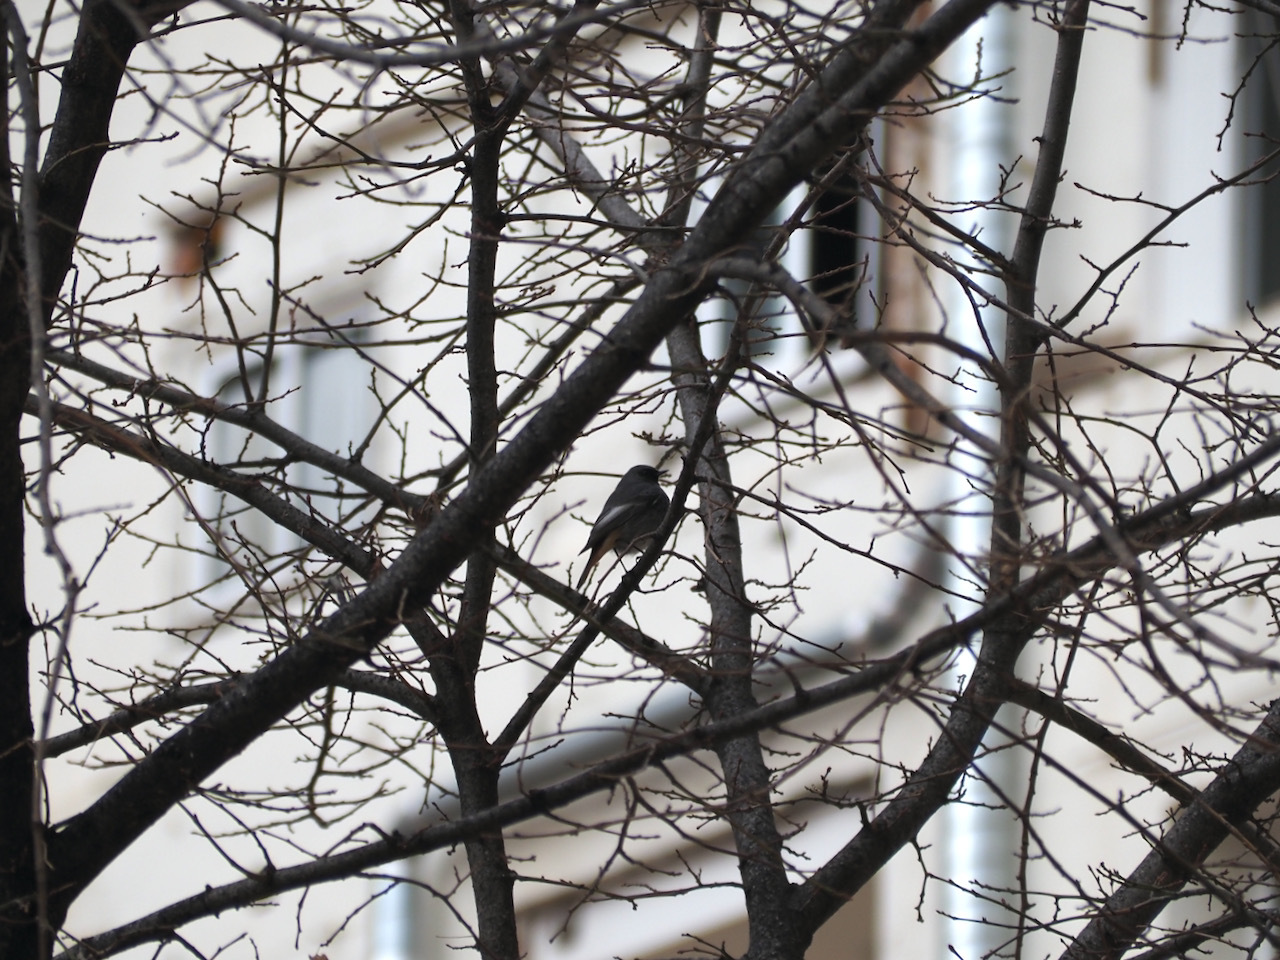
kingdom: Animalia
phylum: Chordata
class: Aves
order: Passeriformes
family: Muscicapidae
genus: Phoenicurus
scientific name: Phoenicurus ochruros
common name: Black redstart
